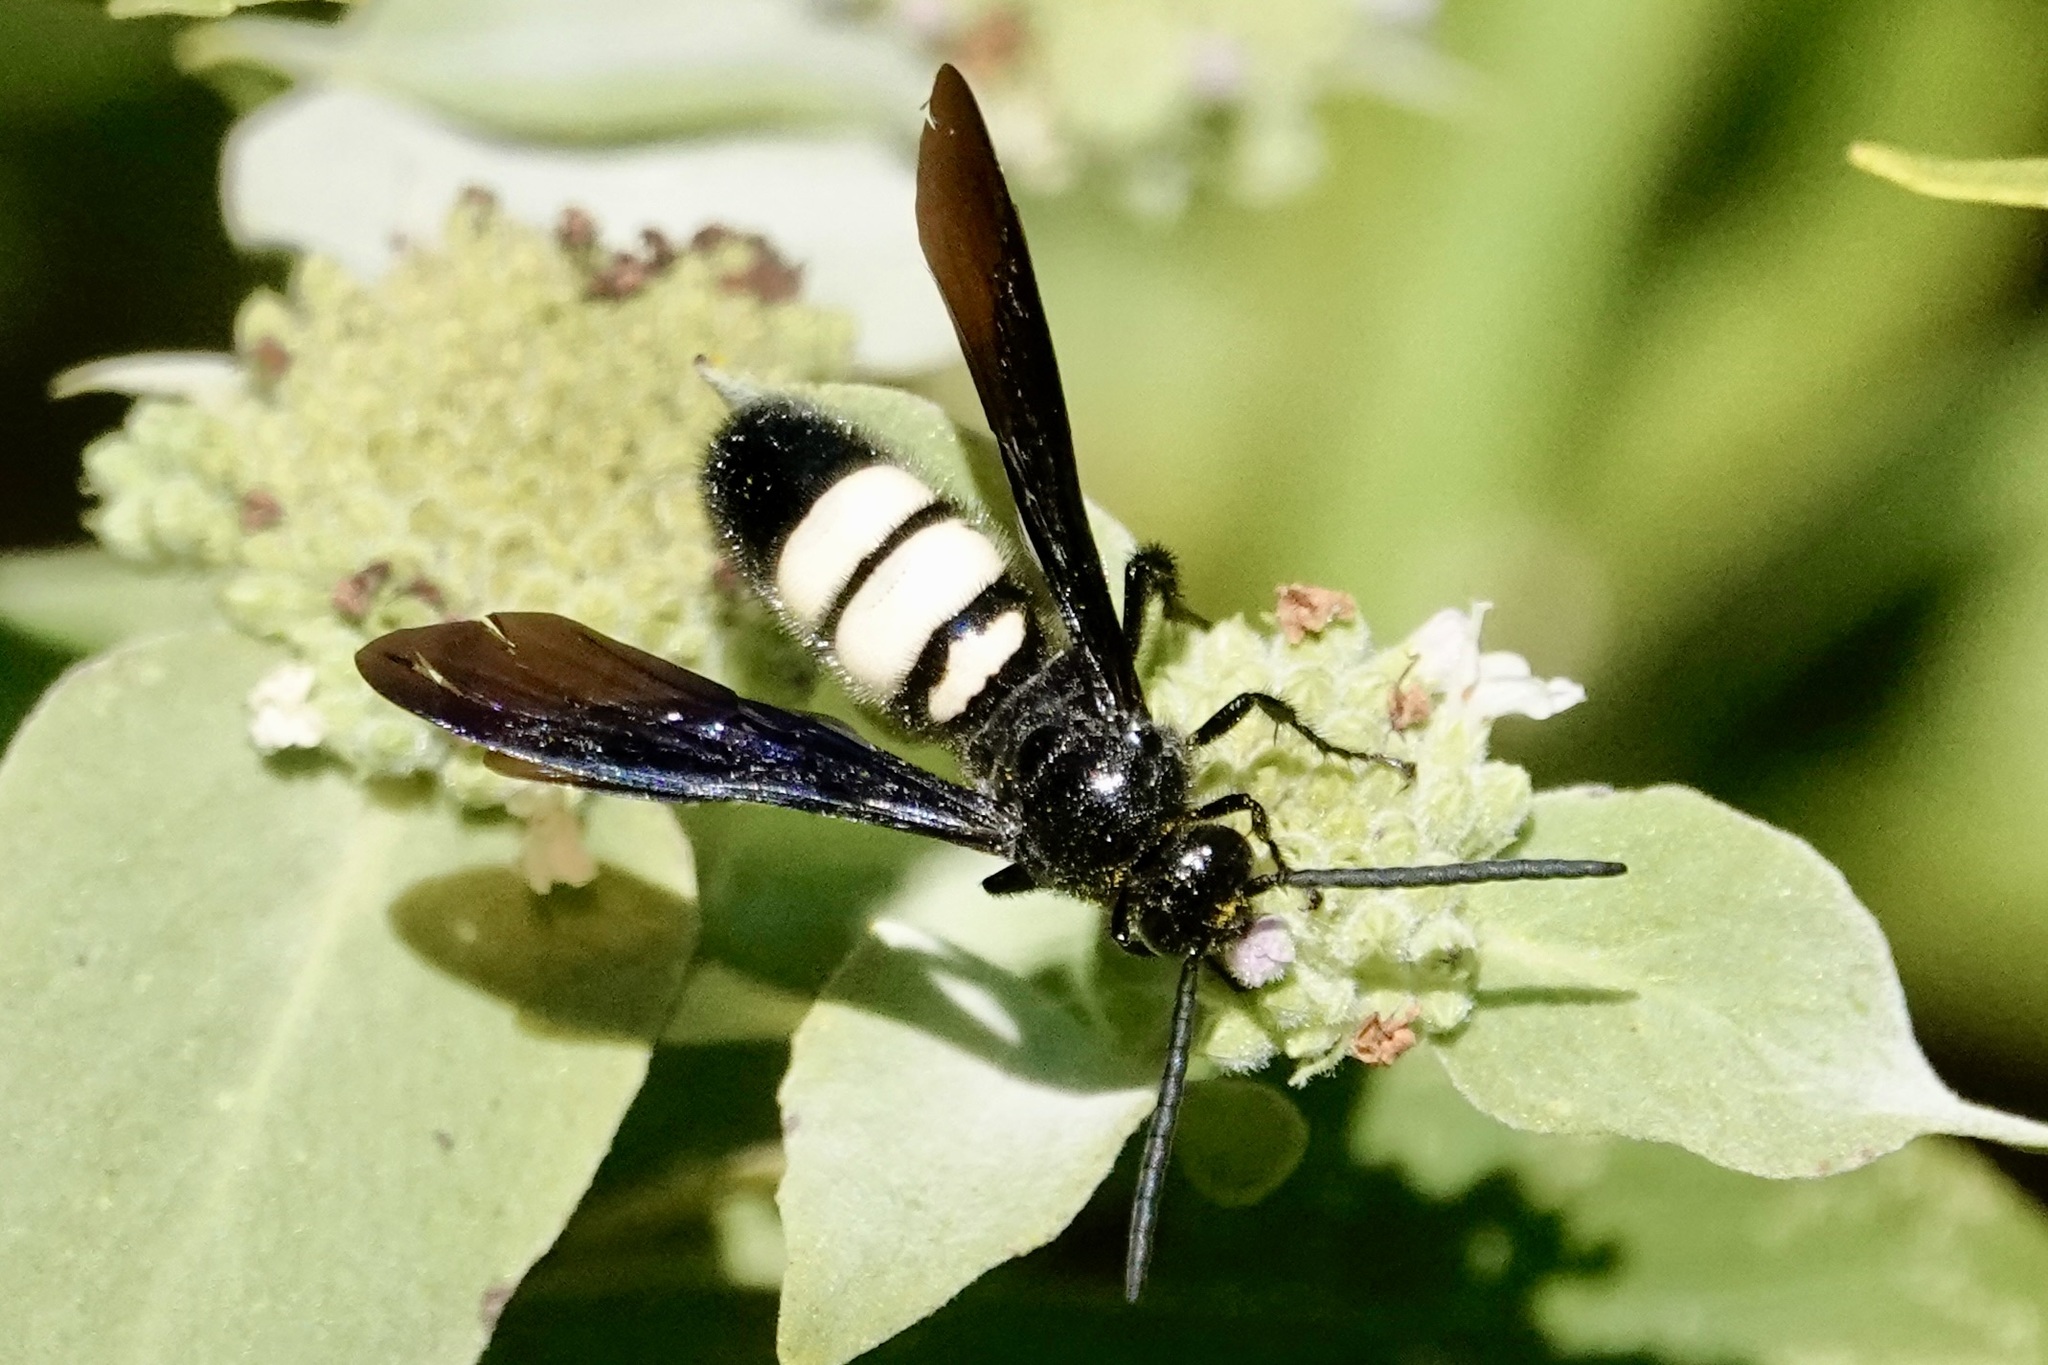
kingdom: Animalia
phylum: Arthropoda
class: Insecta
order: Hymenoptera
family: Scoliidae
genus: Scolia
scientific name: Scolia bicincta
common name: Double-banded scoliid wasp
